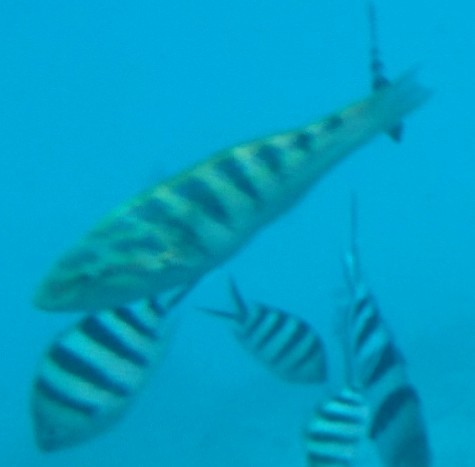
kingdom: Animalia
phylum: Chordata
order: Perciformes
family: Labridae
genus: Thalassoma
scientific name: Thalassoma hardwicke
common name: Sixbar wrasse
